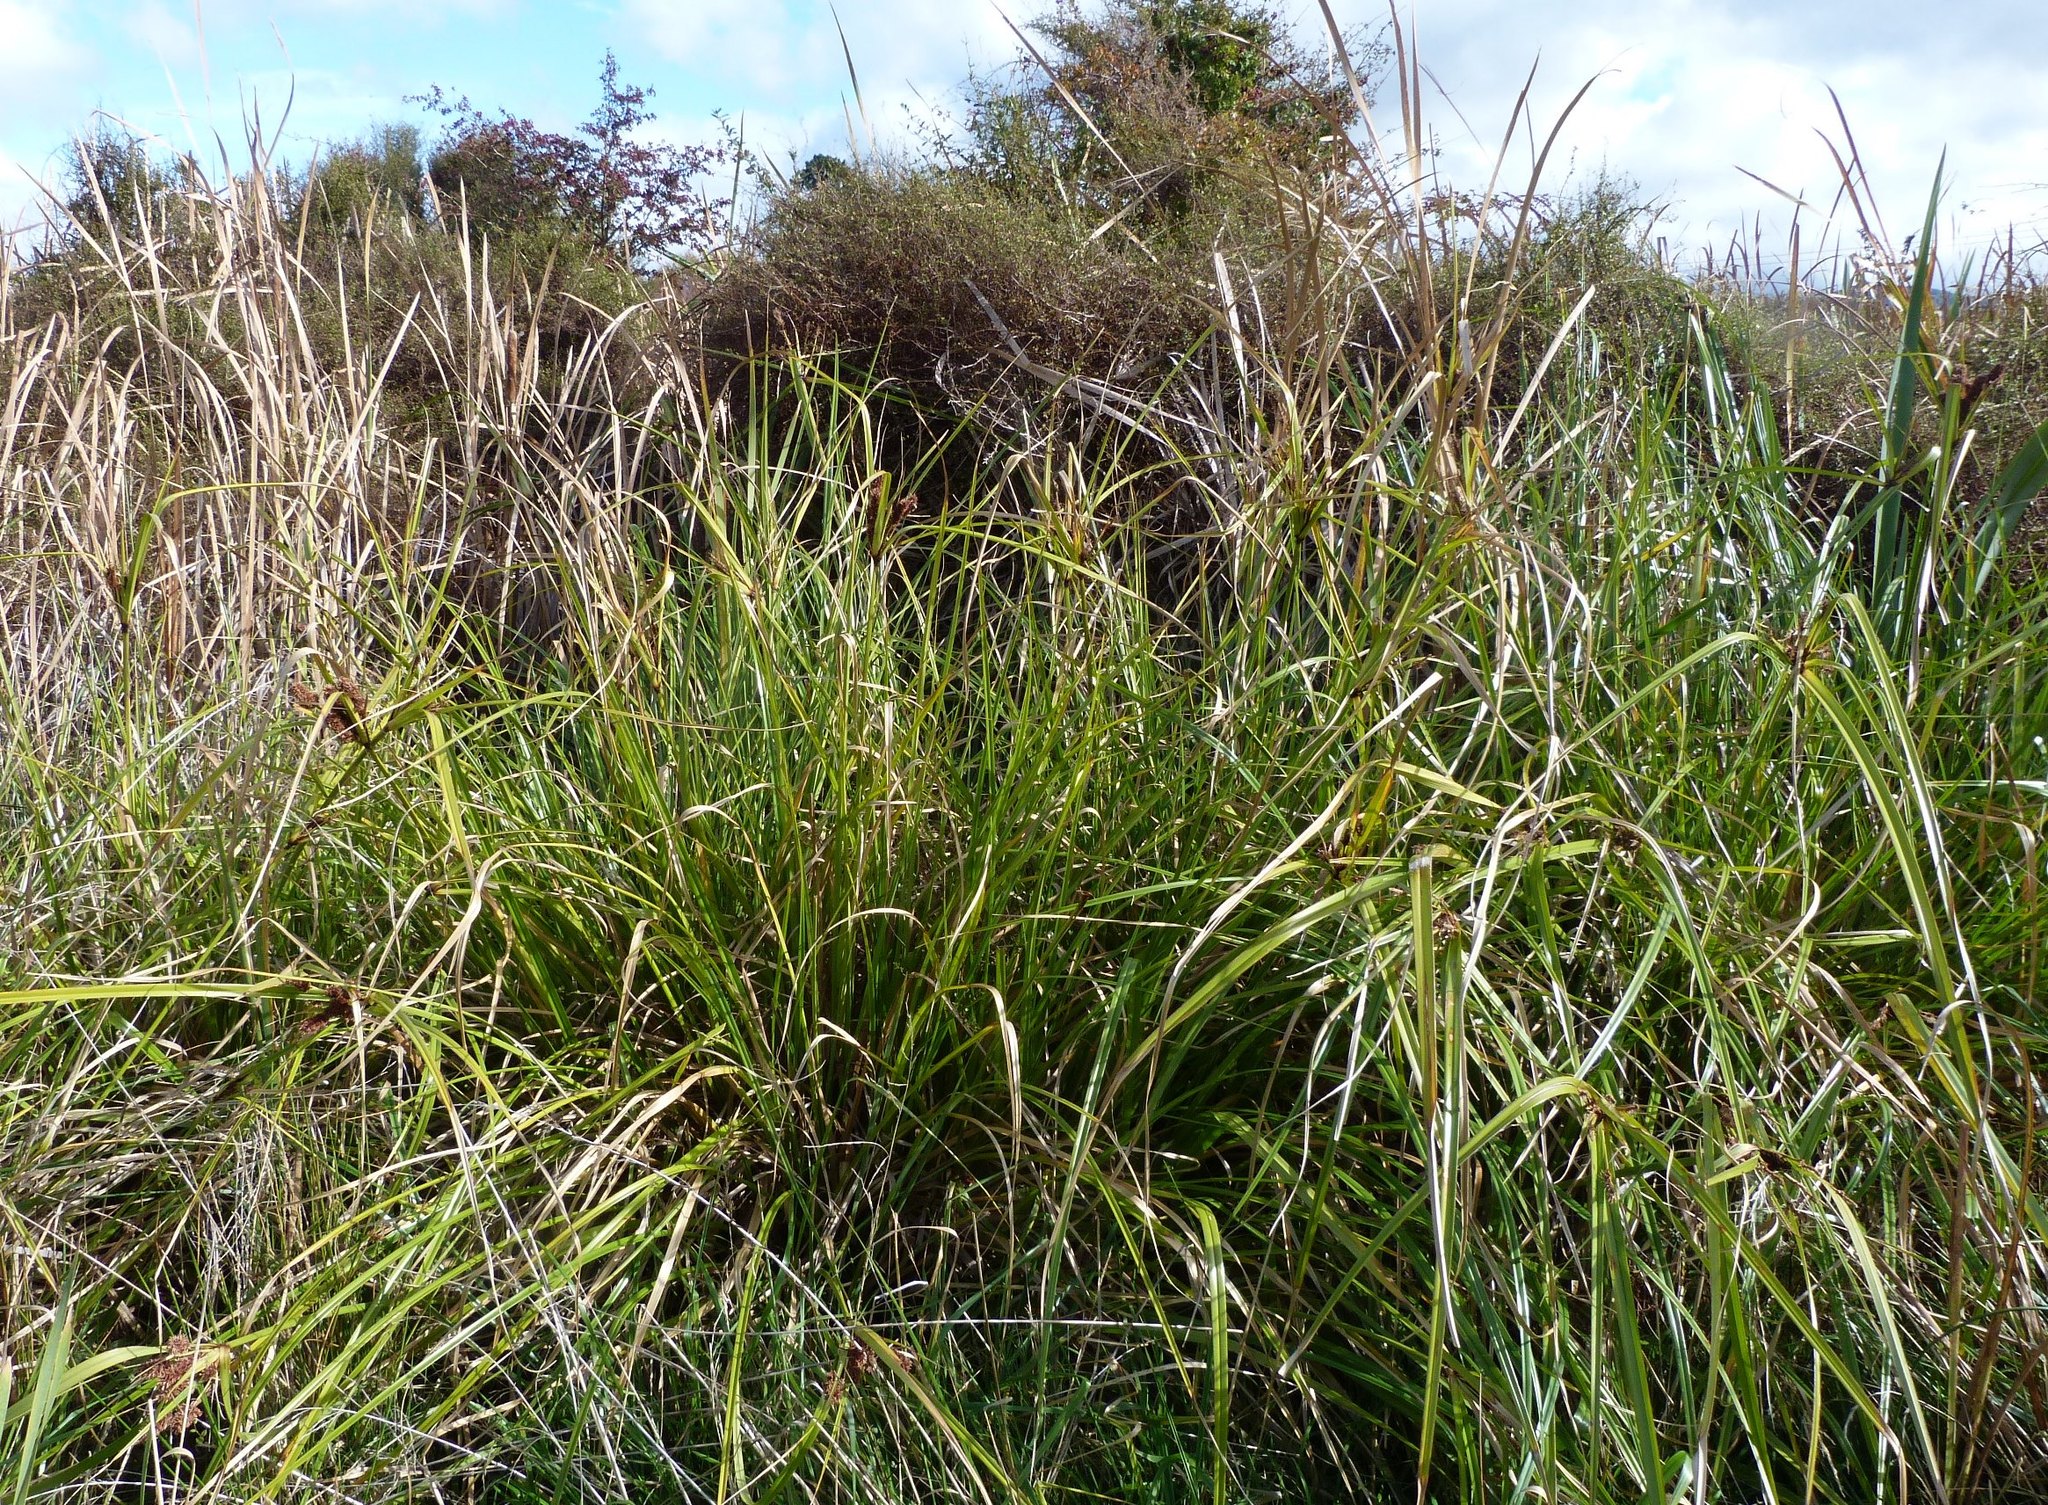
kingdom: Plantae
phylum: Tracheophyta
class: Liliopsida
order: Poales
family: Cyperaceae
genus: Cyperus
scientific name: Cyperus ustulatus
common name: Giant umbrella-sedge
